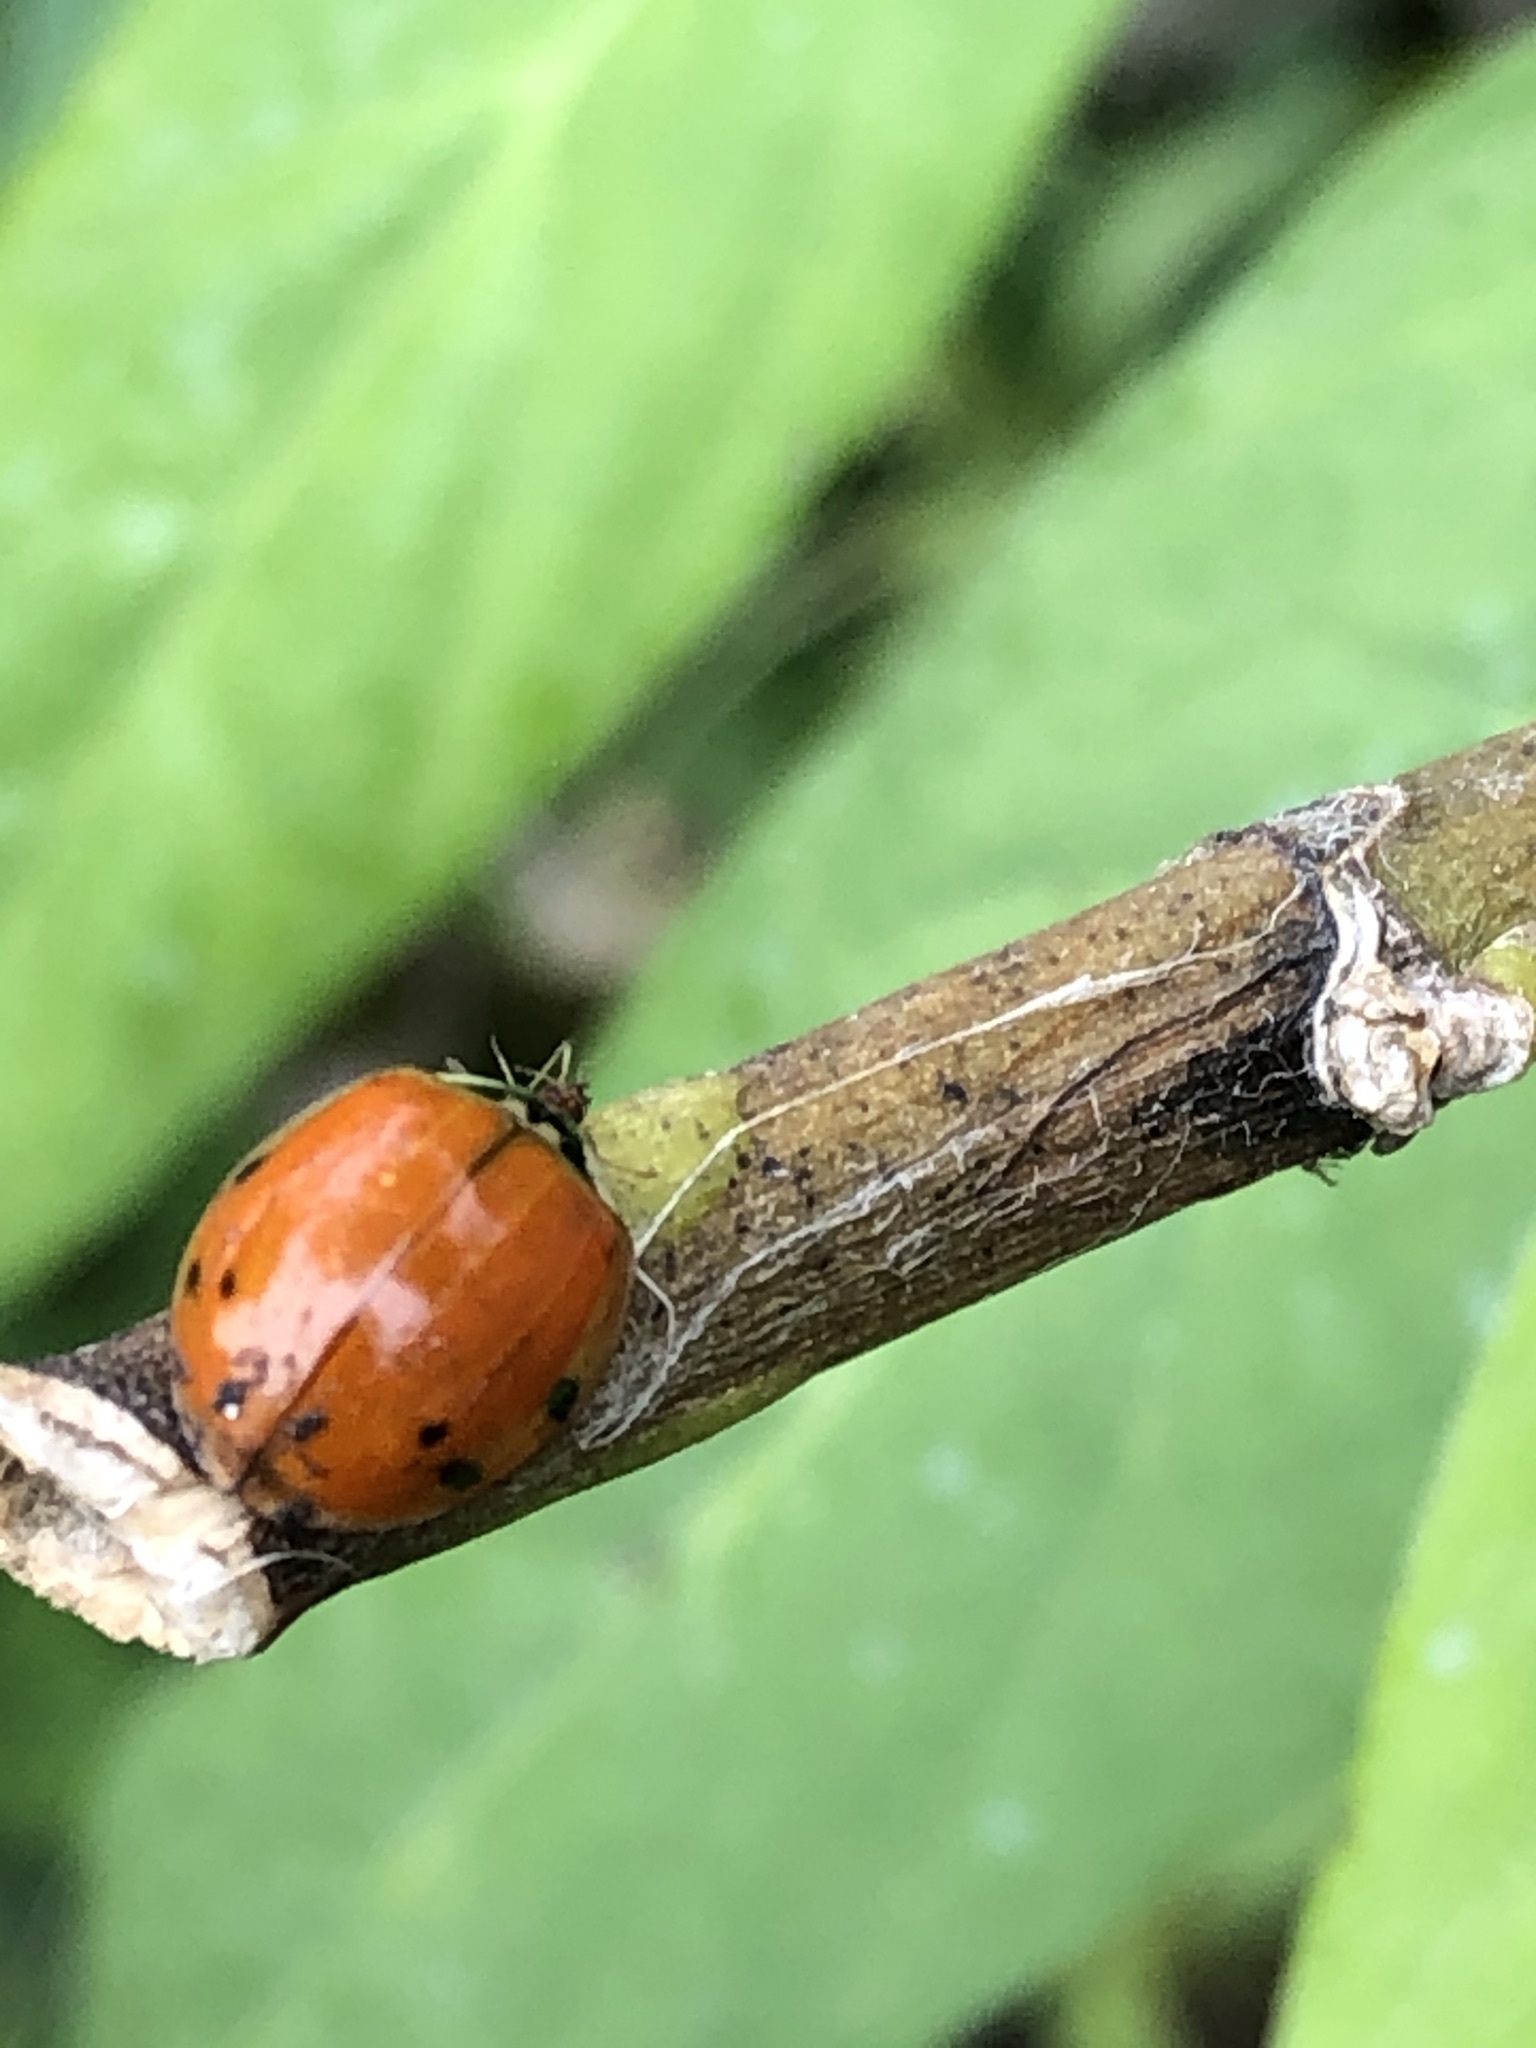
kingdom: Animalia
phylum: Arthropoda
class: Insecta
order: Coleoptera
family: Coccinellidae
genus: Harmonia
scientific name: Harmonia axyridis
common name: Harlequin ladybird
